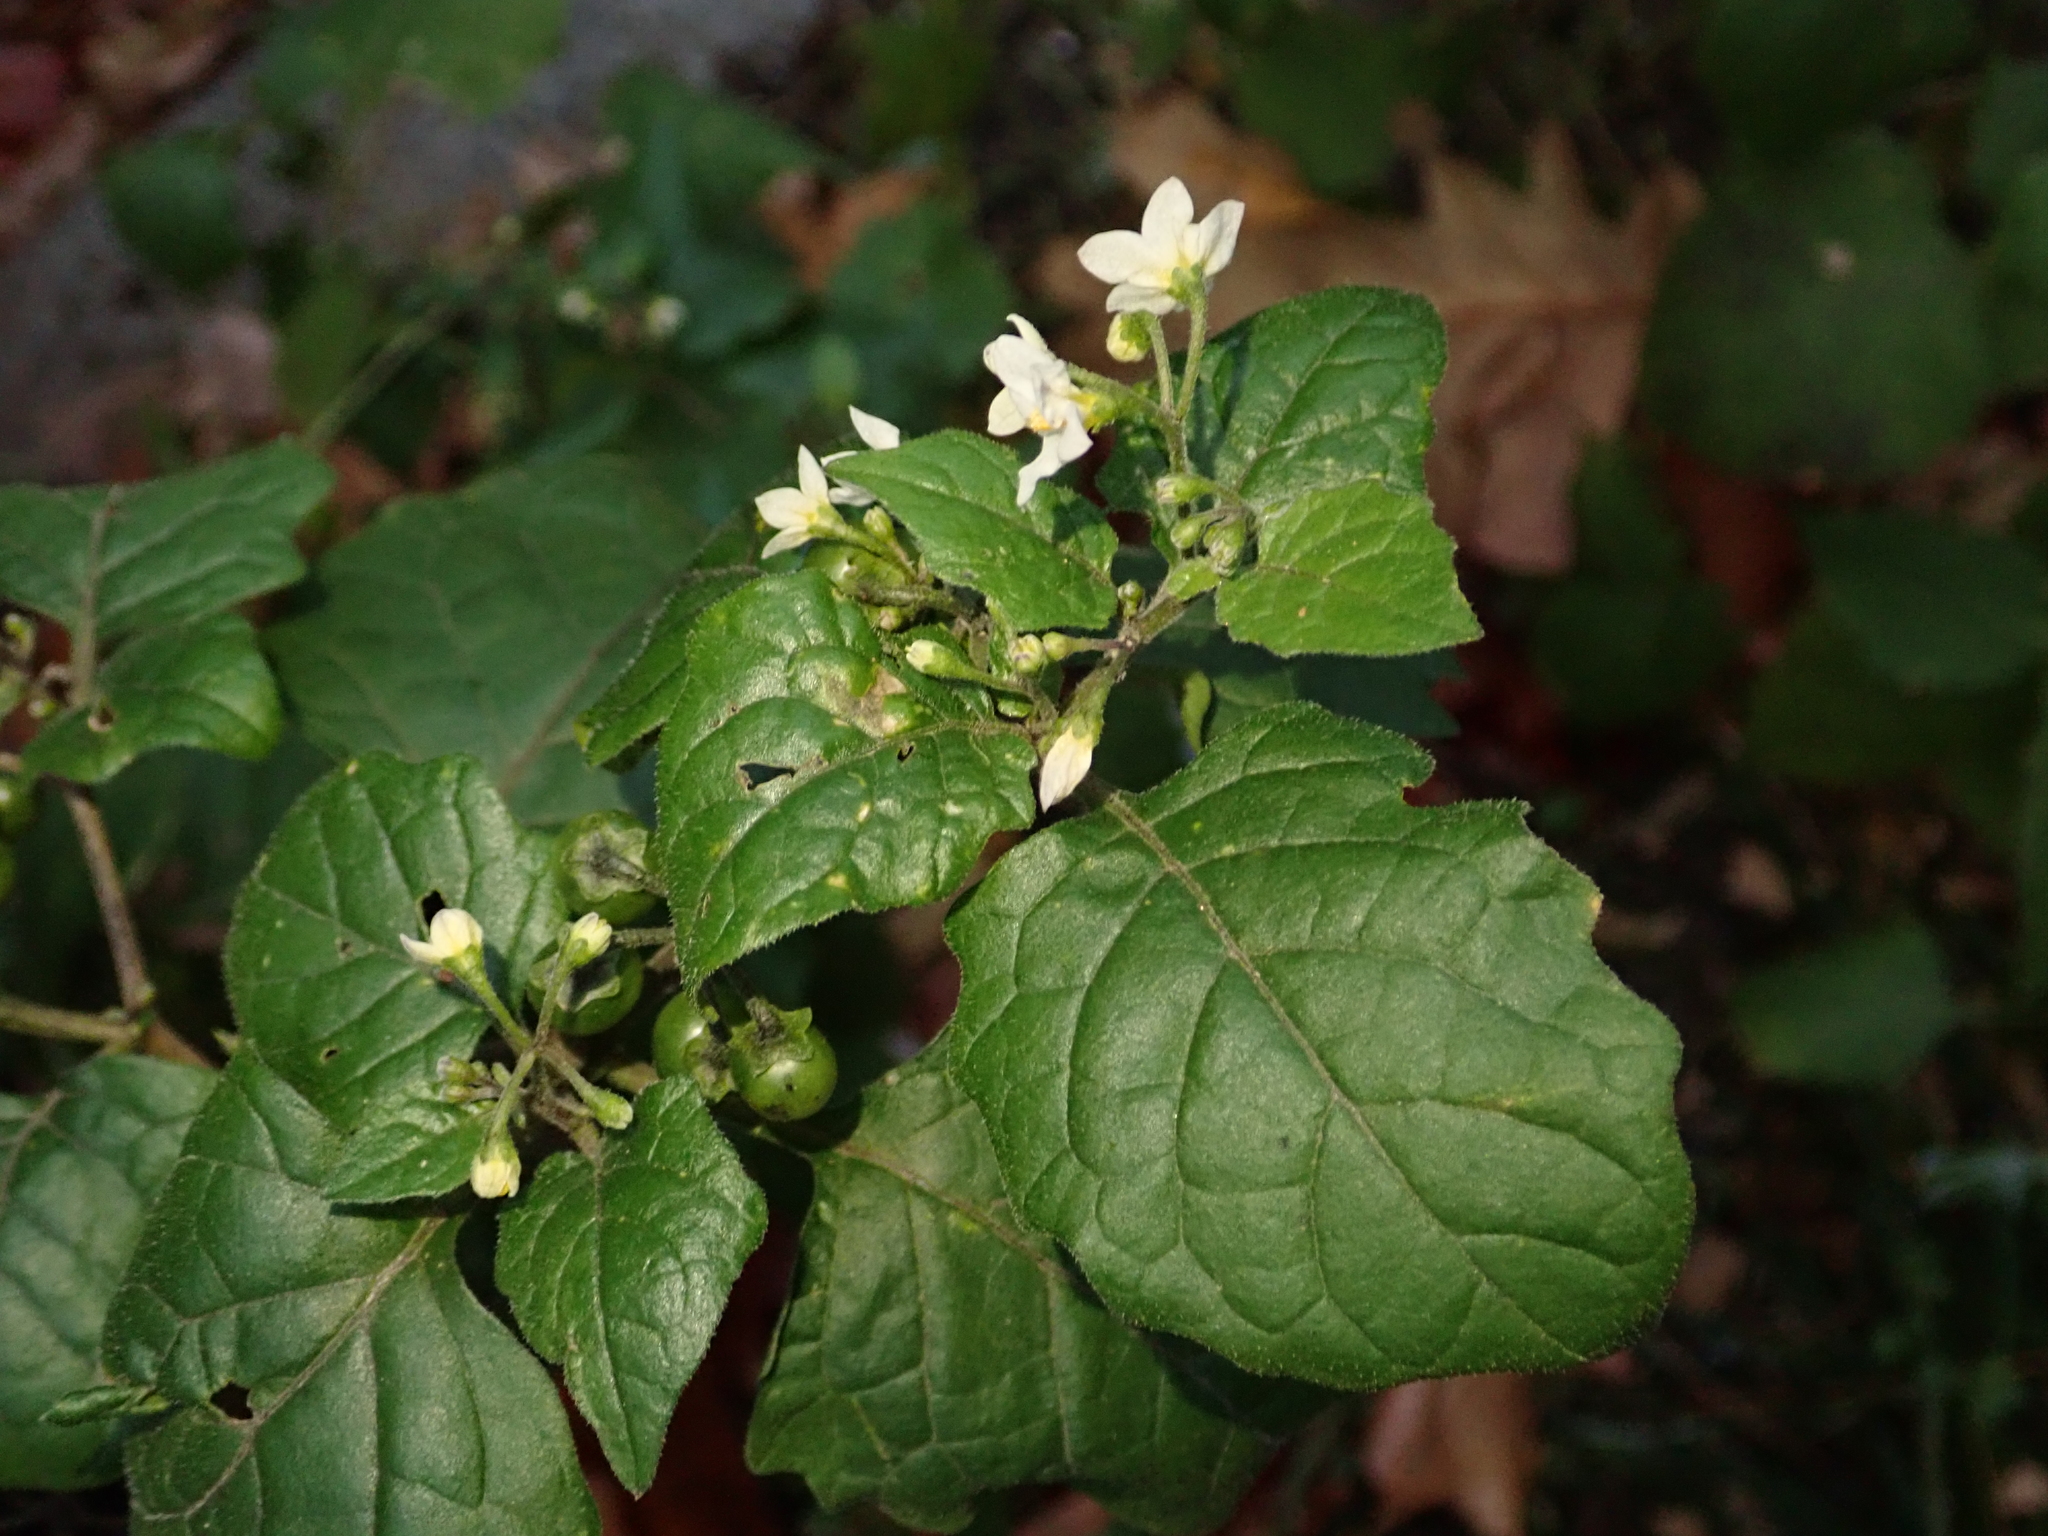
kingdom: Plantae
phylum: Tracheophyta
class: Magnoliopsida
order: Solanales
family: Solanaceae
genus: Solanum
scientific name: Solanum nigrum
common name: Black nightshade
